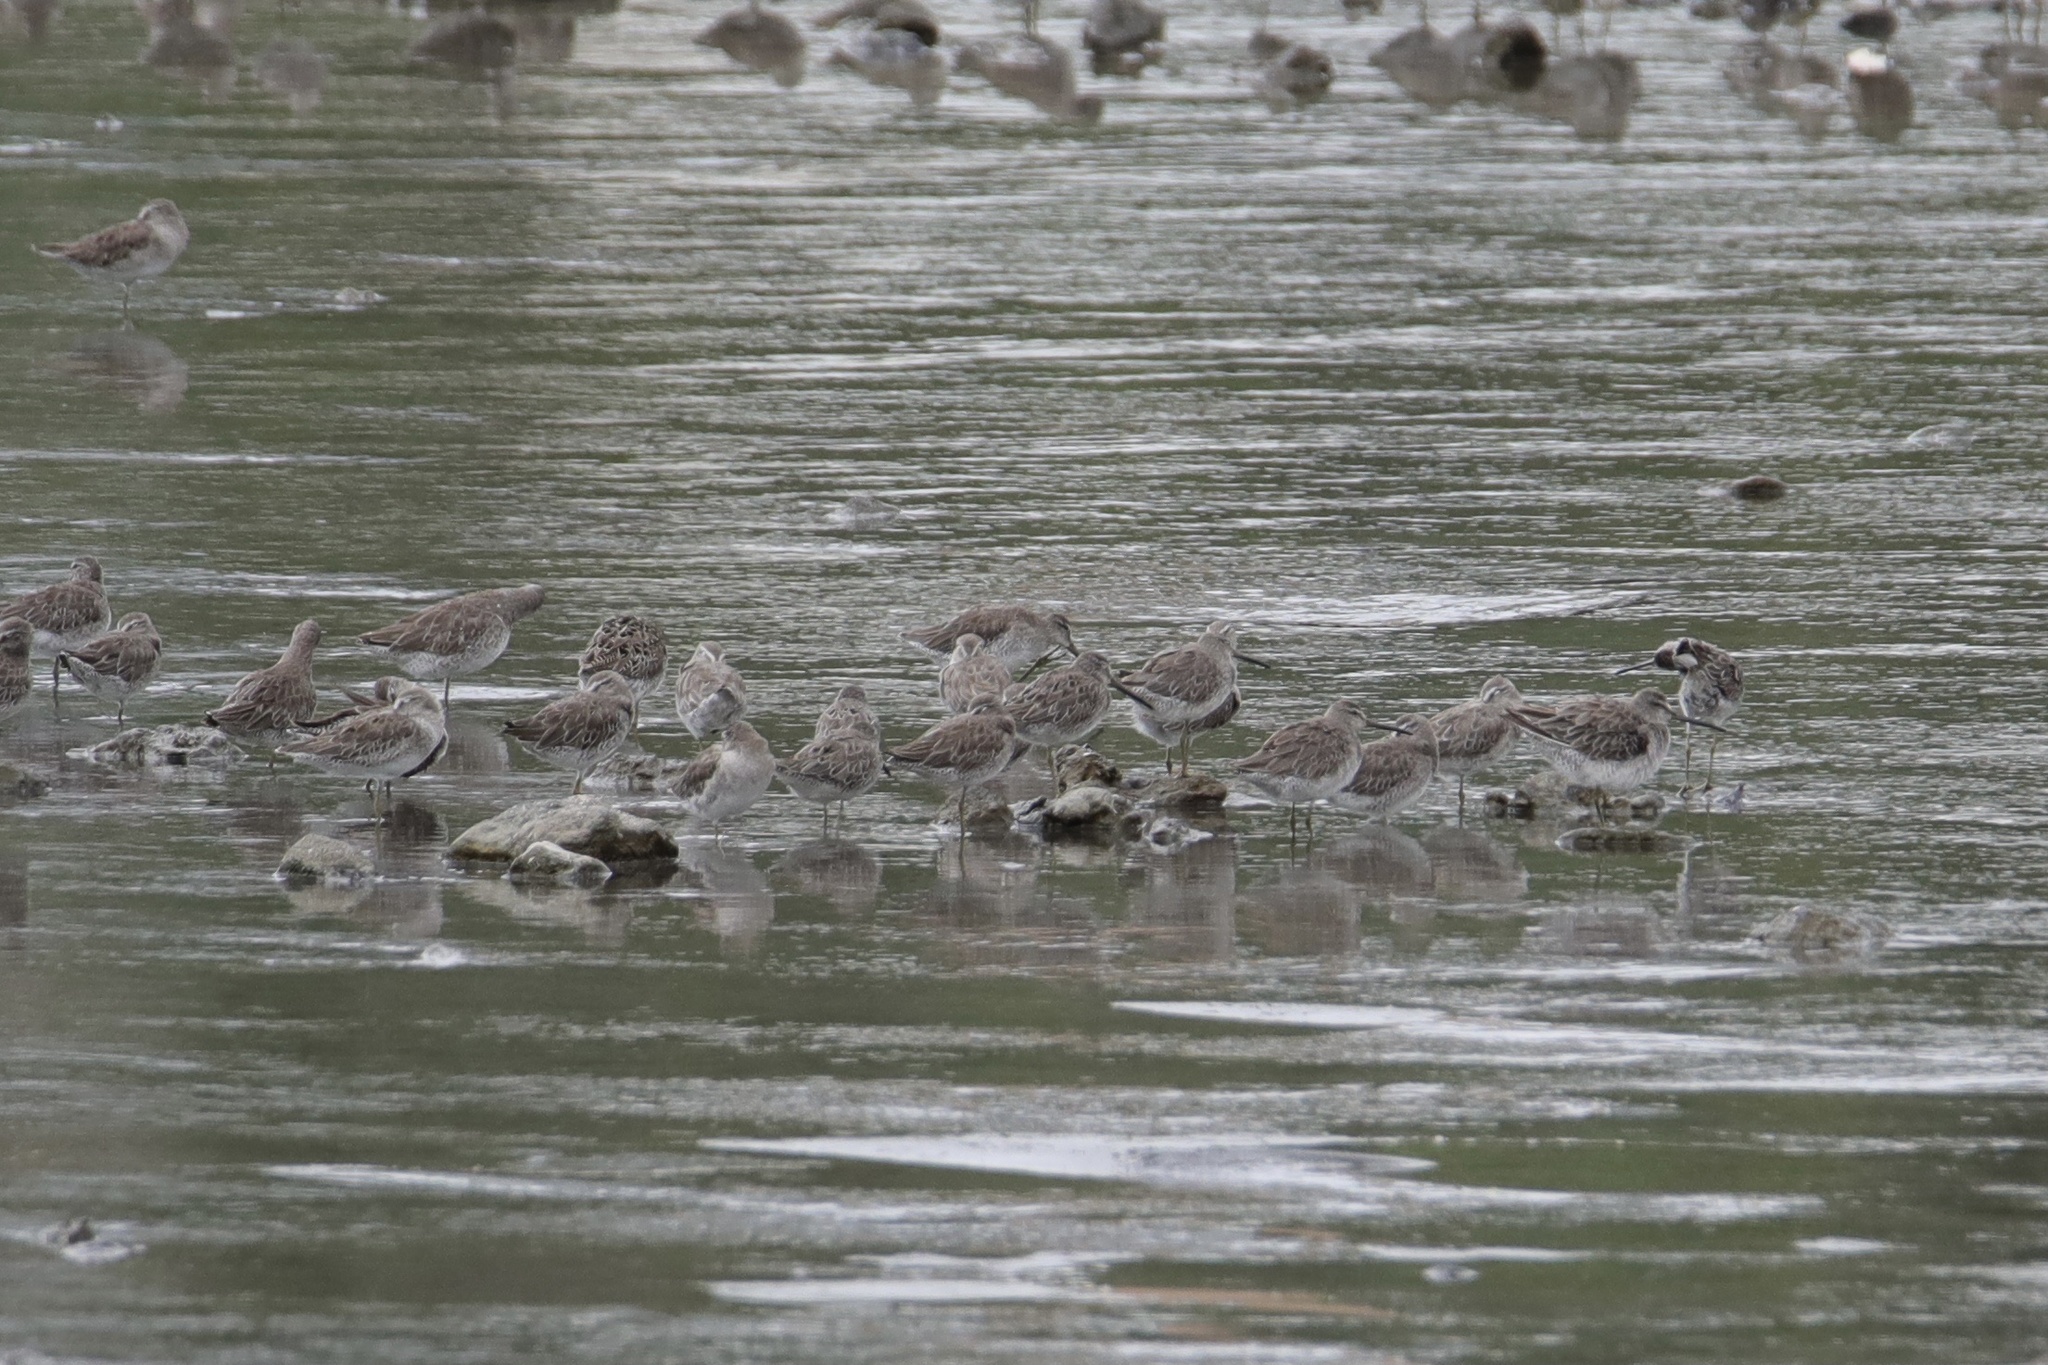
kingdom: Animalia
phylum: Chordata
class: Aves
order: Charadriiformes
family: Scolopacidae
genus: Limnodromus
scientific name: Limnodromus griseus
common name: Short-billed dowitcher
